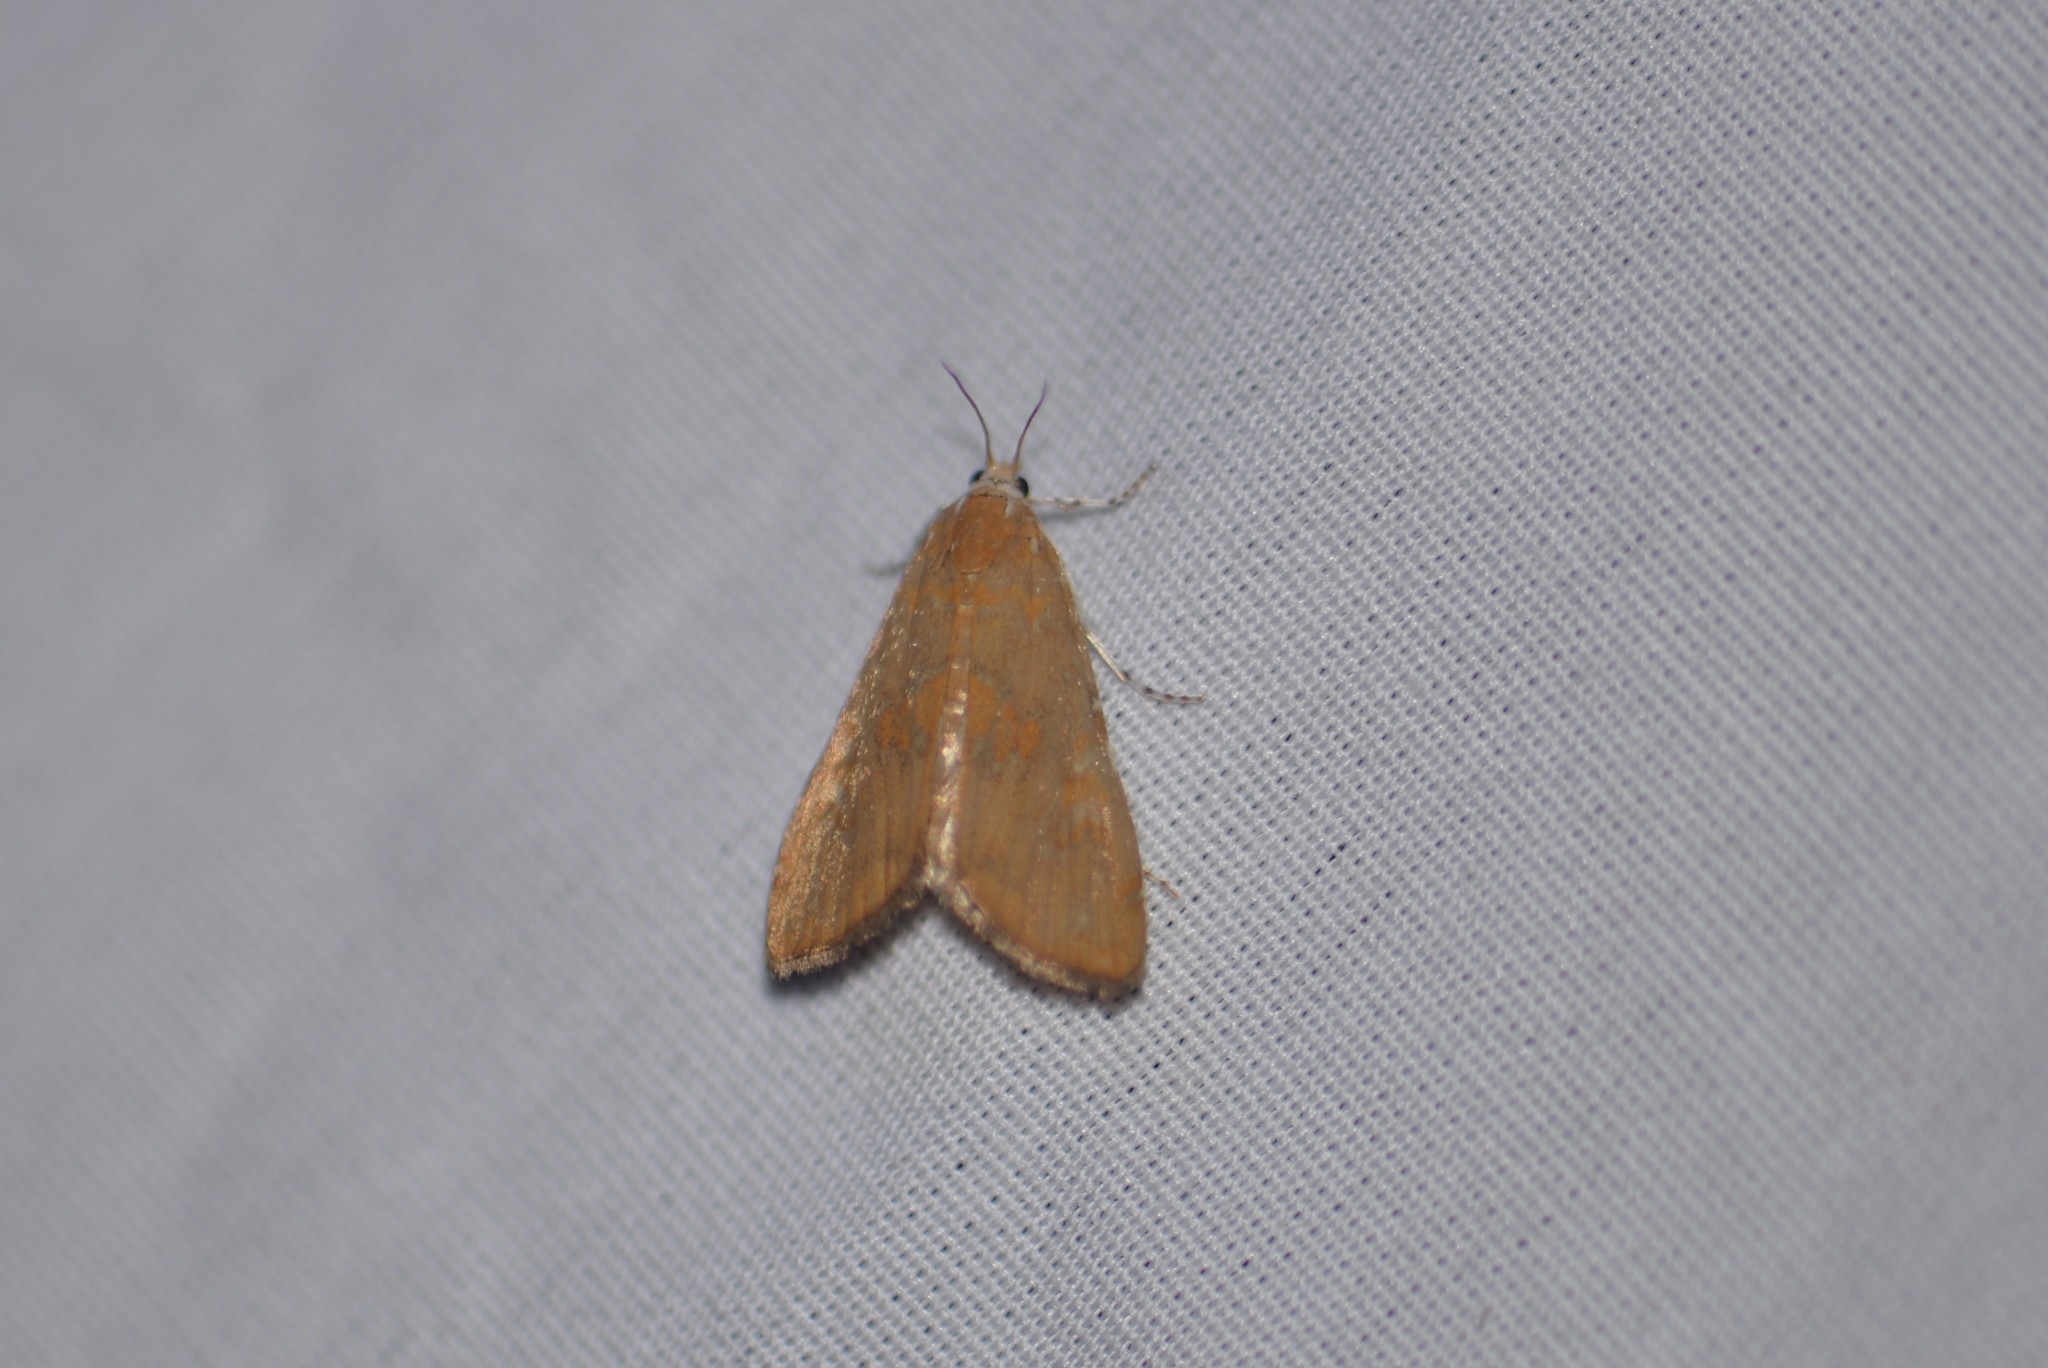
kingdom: Animalia
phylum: Arthropoda
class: Insecta
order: Lepidoptera
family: Crambidae
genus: Elophila
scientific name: Elophila gyralis
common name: Waterlily borer moth
